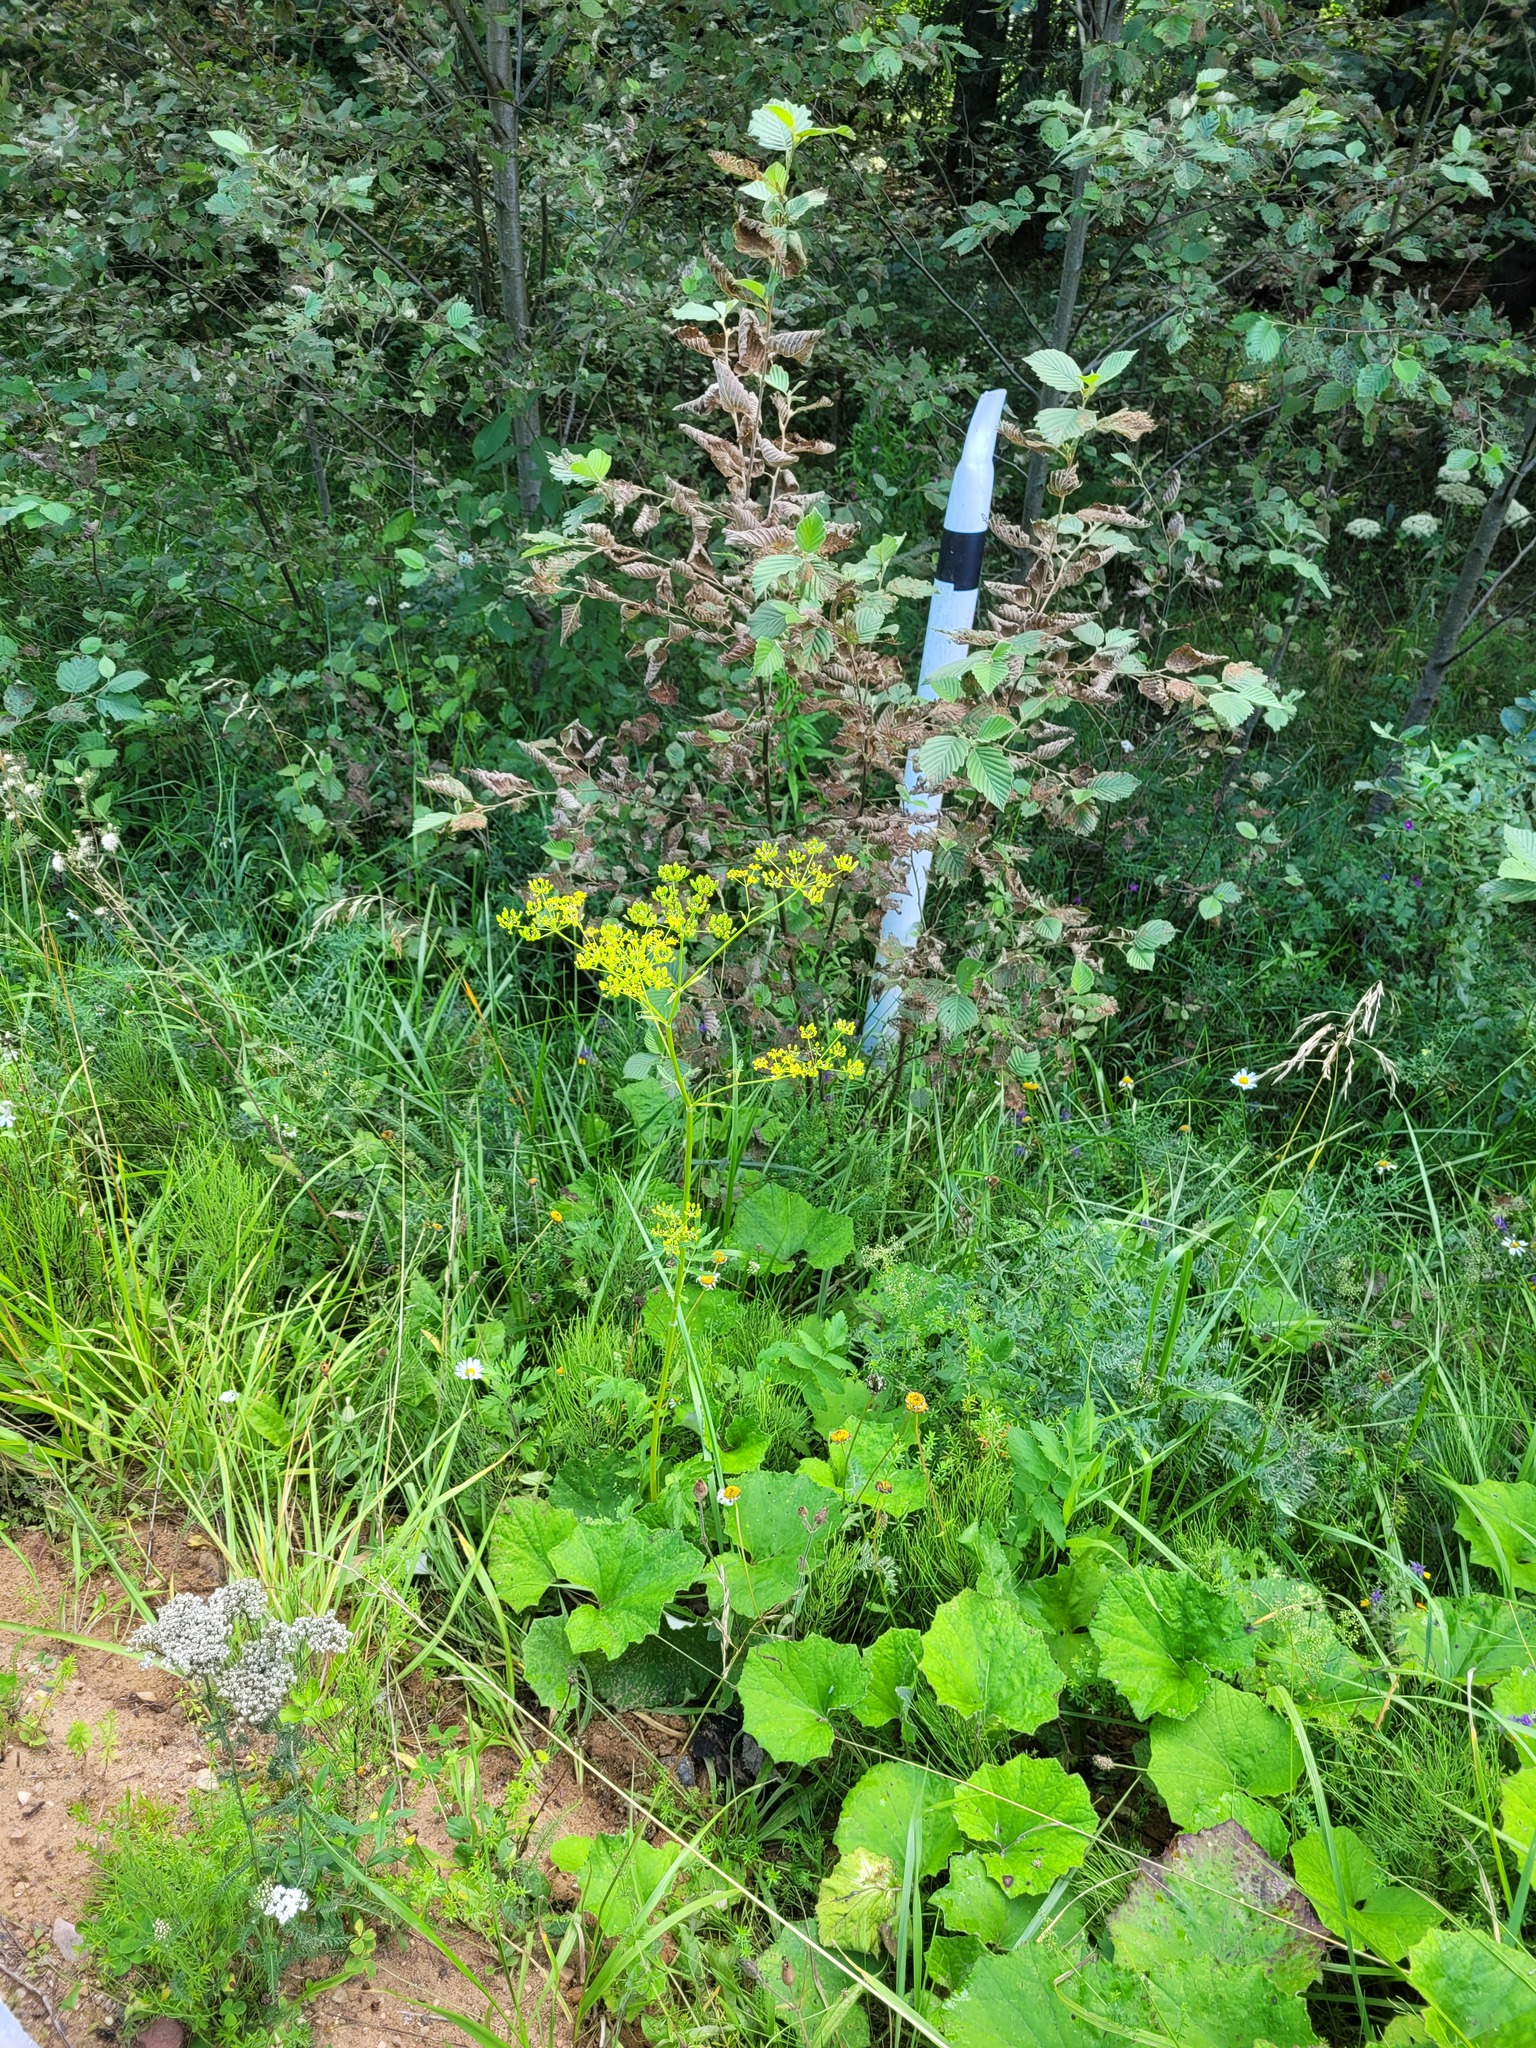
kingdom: Plantae
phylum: Tracheophyta
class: Magnoliopsida
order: Apiales
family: Apiaceae
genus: Pastinaca
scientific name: Pastinaca sativa
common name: Wild parsnip
